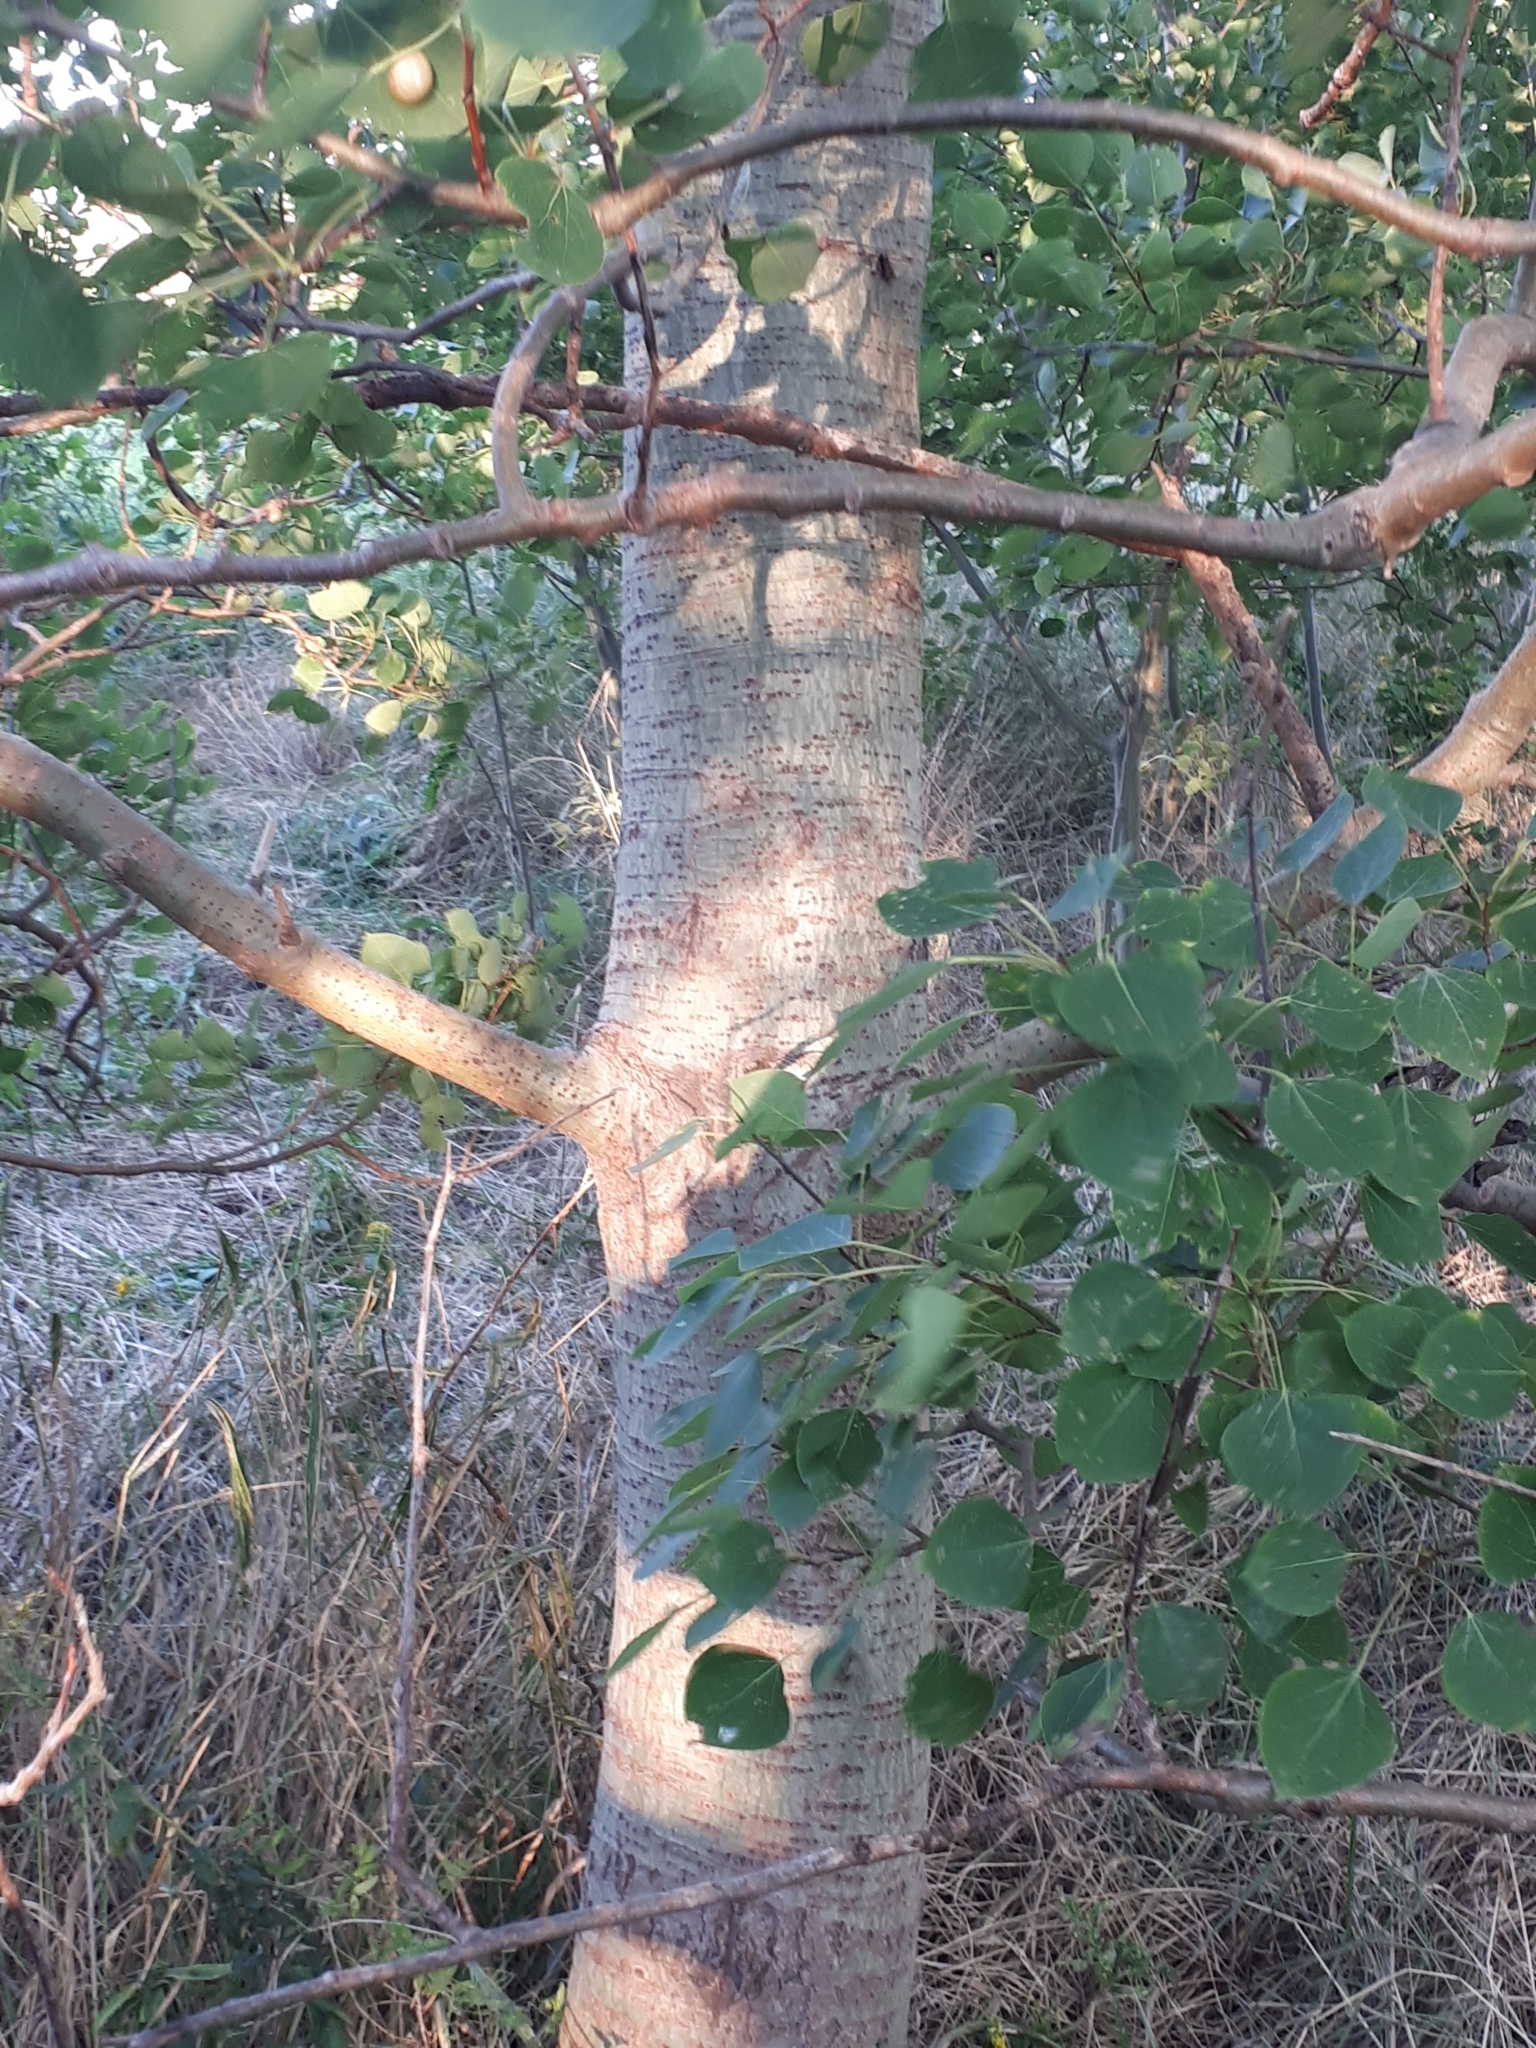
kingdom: Plantae
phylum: Tracheophyta
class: Magnoliopsida
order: Malpighiales
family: Salicaceae
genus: Populus
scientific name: Populus tremuloides
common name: Quaking aspen
